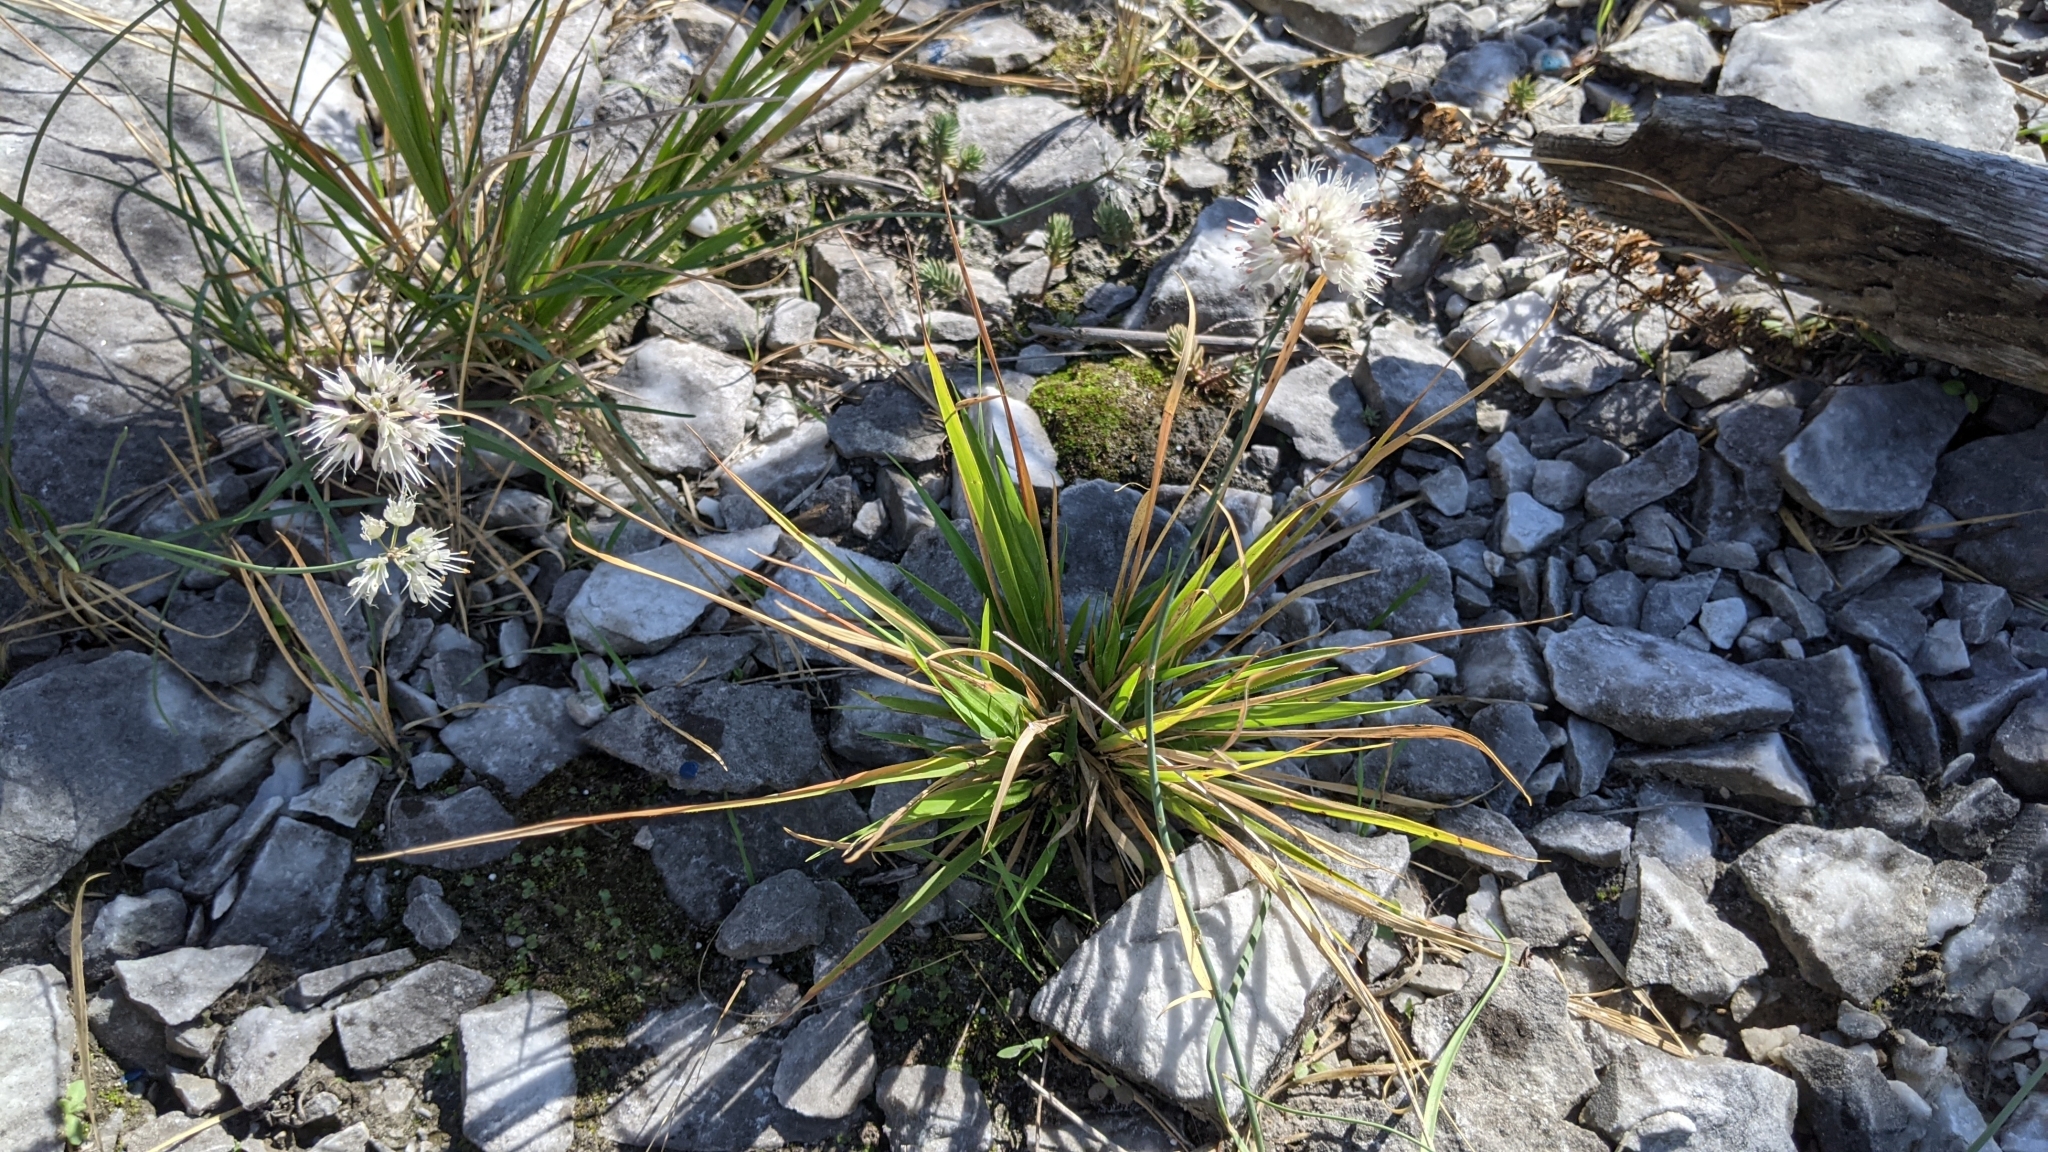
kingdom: Plantae
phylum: Tracheophyta
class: Liliopsida
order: Asparagales
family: Amaryllidaceae
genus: Allium
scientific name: Allium
